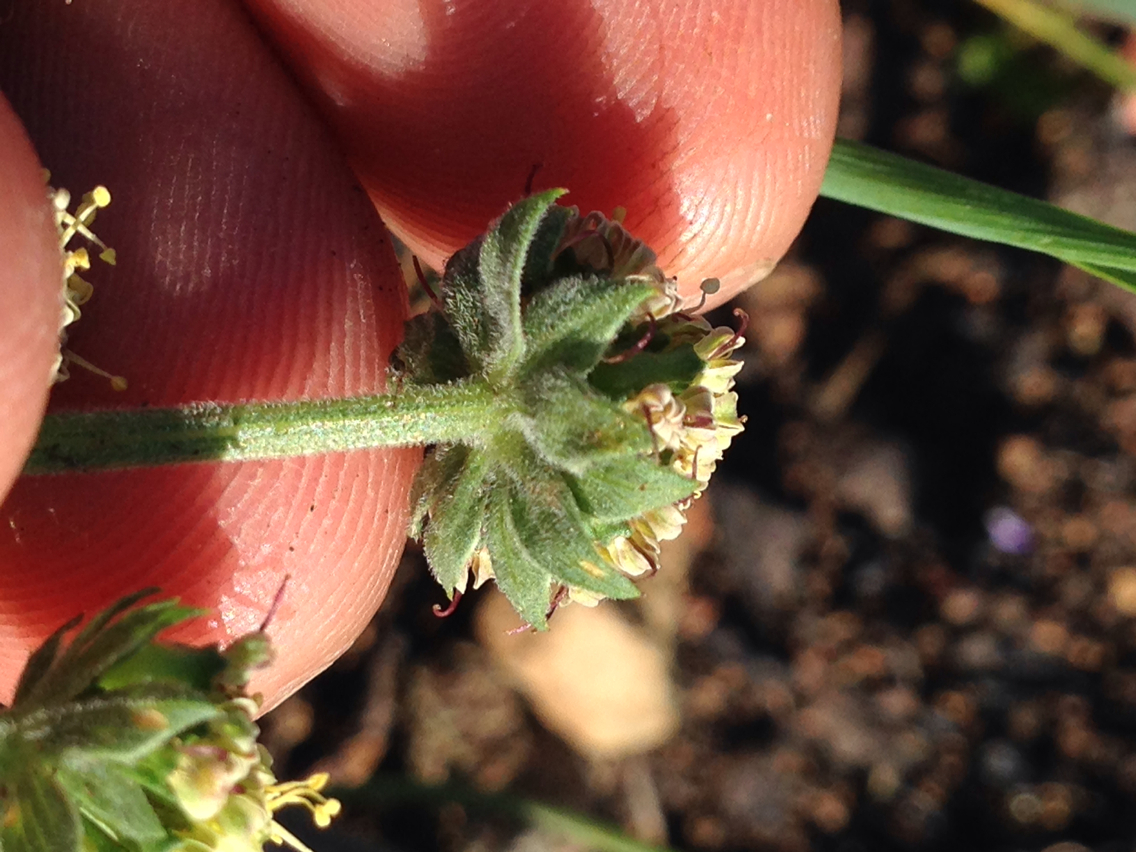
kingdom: Plantae
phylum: Tracheophyta
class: Magnoliopsida
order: Apiales
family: Apiaceae
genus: Lomatium
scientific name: Lomatium macrocarpum
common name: Big-seed biscuitroot
